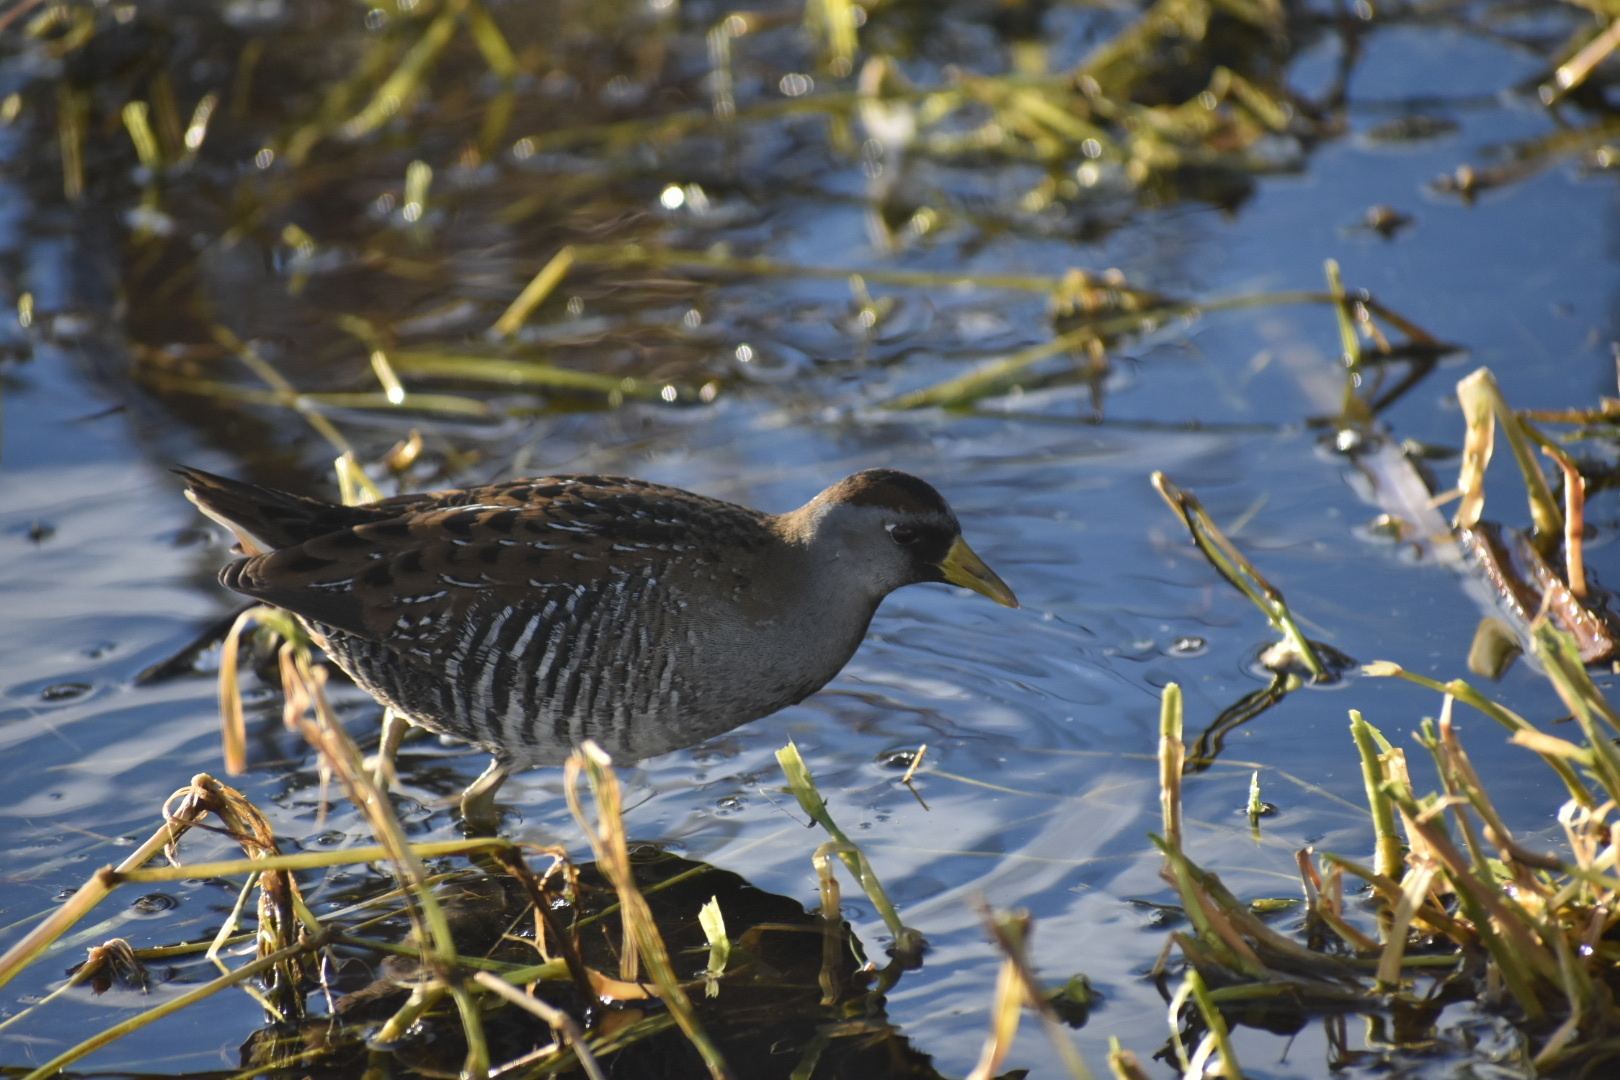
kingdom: Animalia
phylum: Chordata
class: Aves
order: Gruiformes
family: Rallidae
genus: Porzana
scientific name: Porzana carolina
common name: Sora
